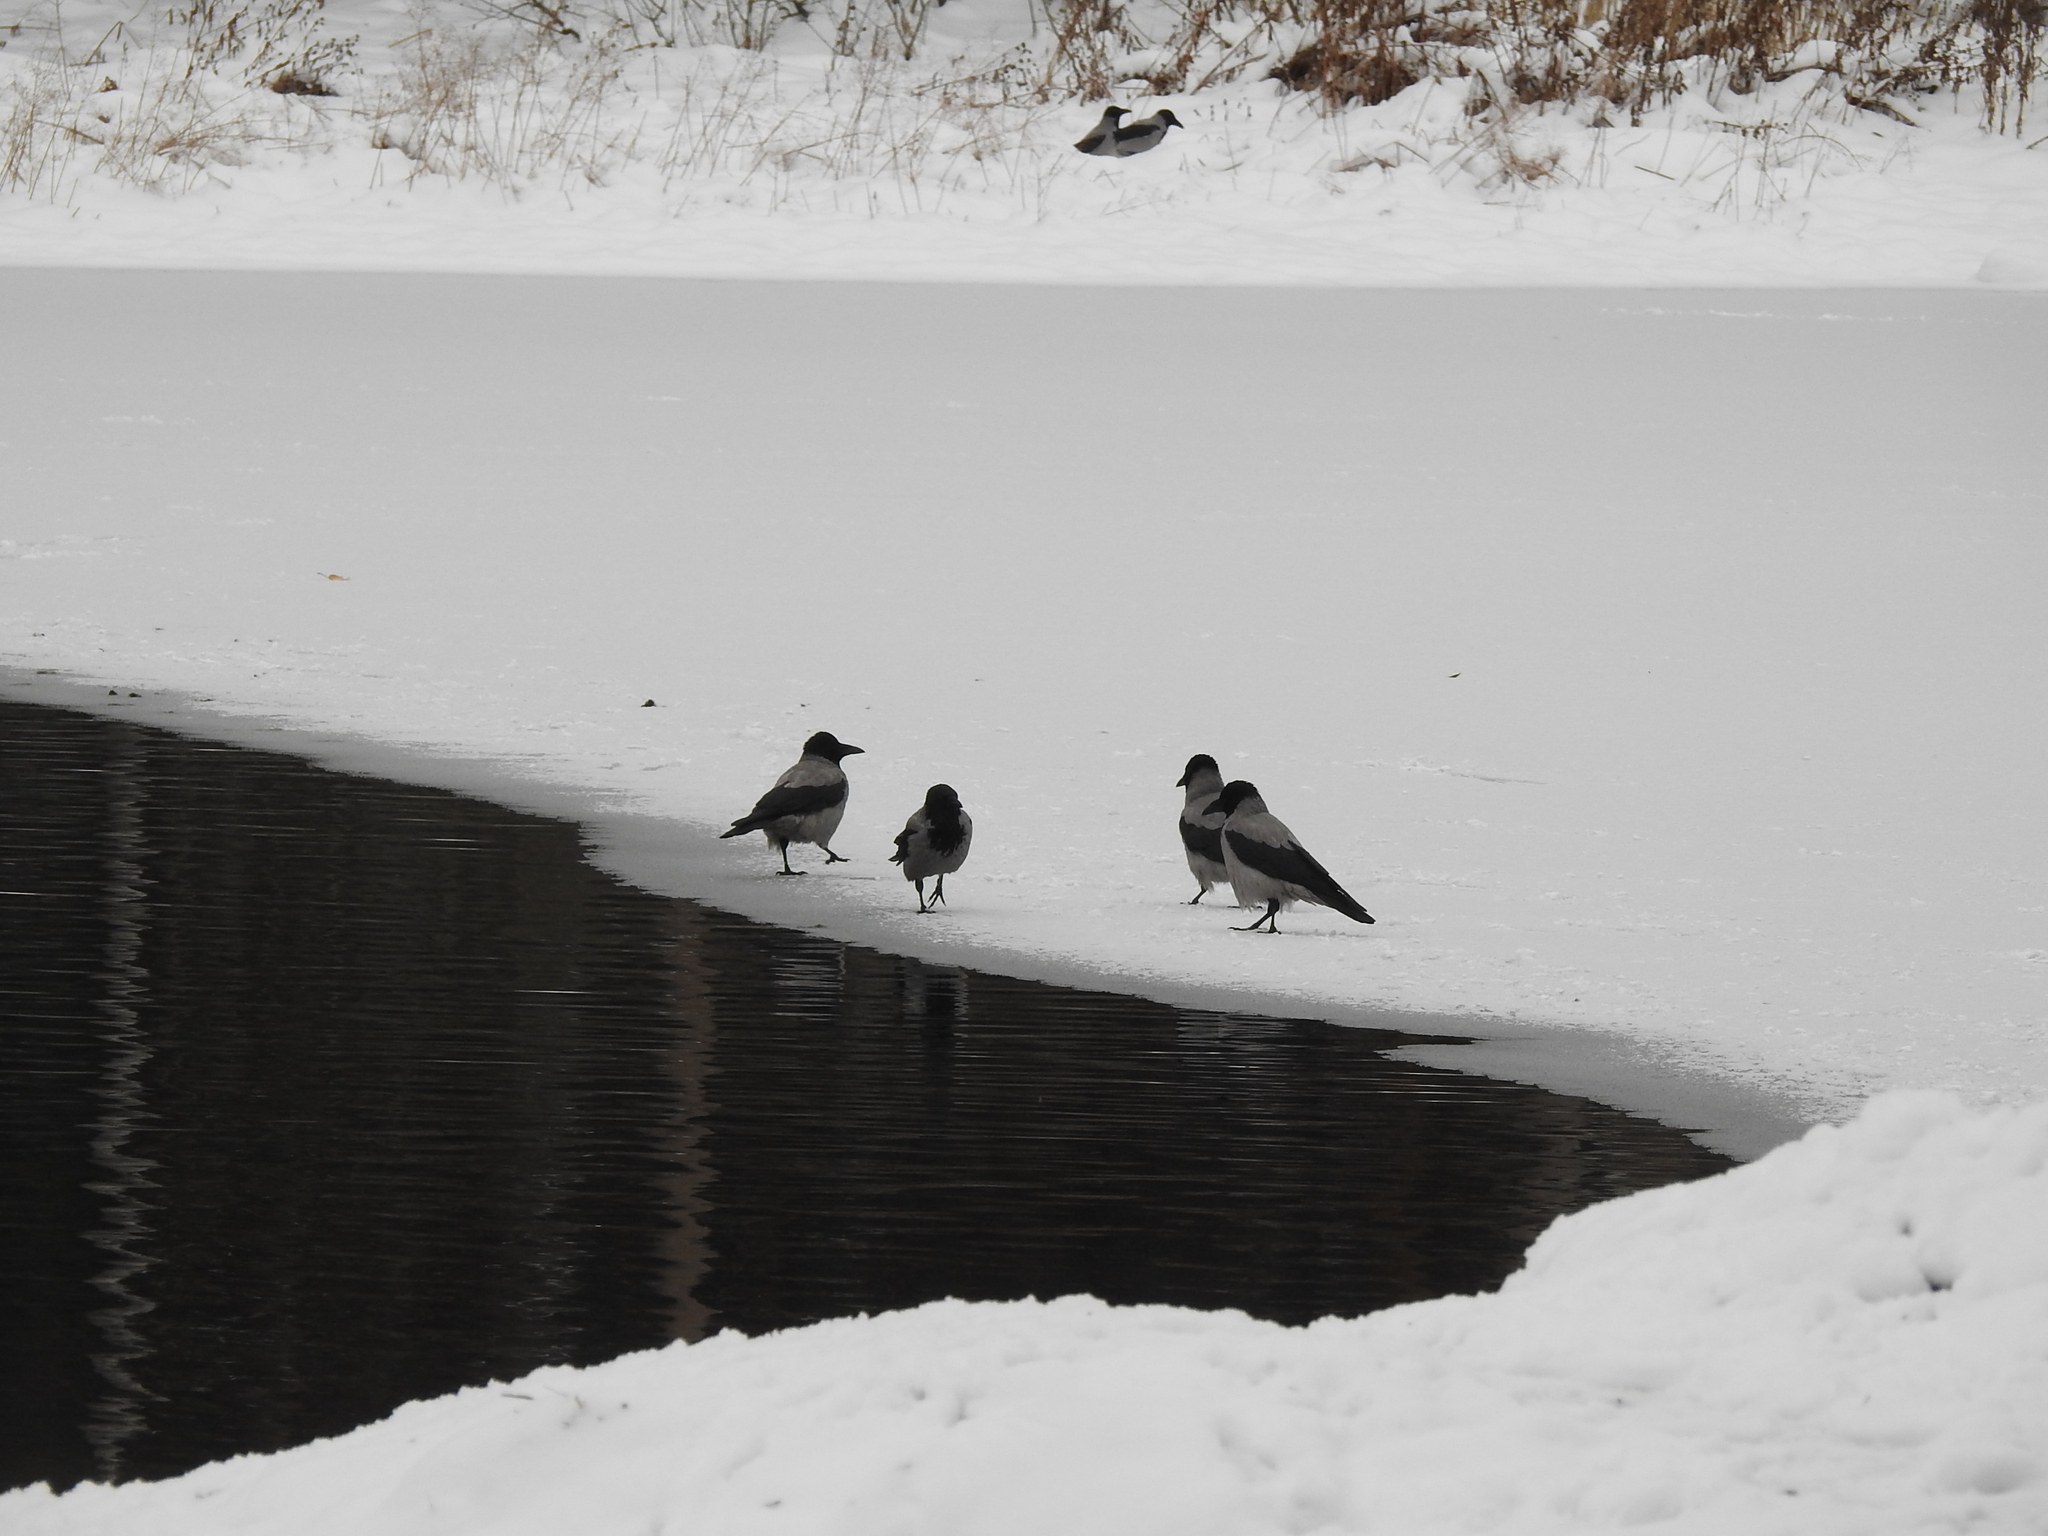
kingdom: Animalia
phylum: Chordata
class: Aves
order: Passeriformes
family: Corvidae
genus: Corvus
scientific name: Corvus cornix
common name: Hooded crow
